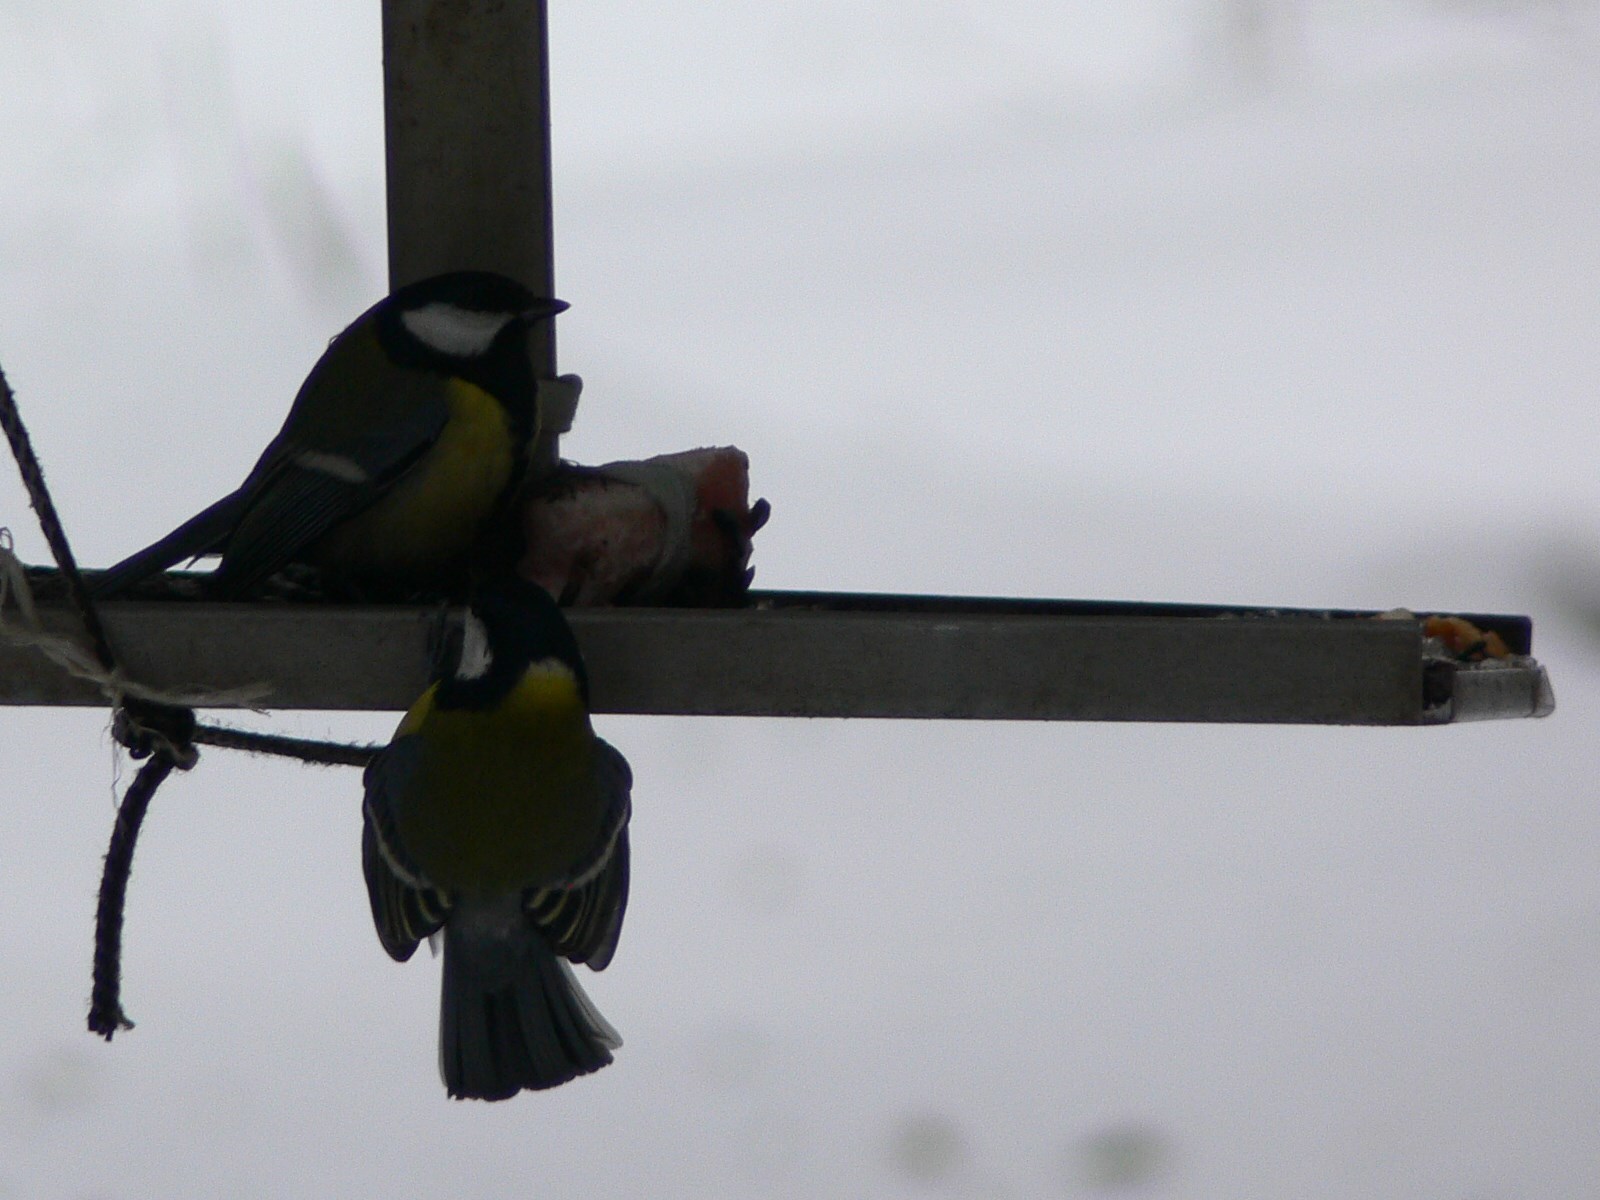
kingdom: Animalia
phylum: Chordata
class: Aves
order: Passeriformes
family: Paridae
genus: Parus
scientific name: Parus major
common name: Great tit
